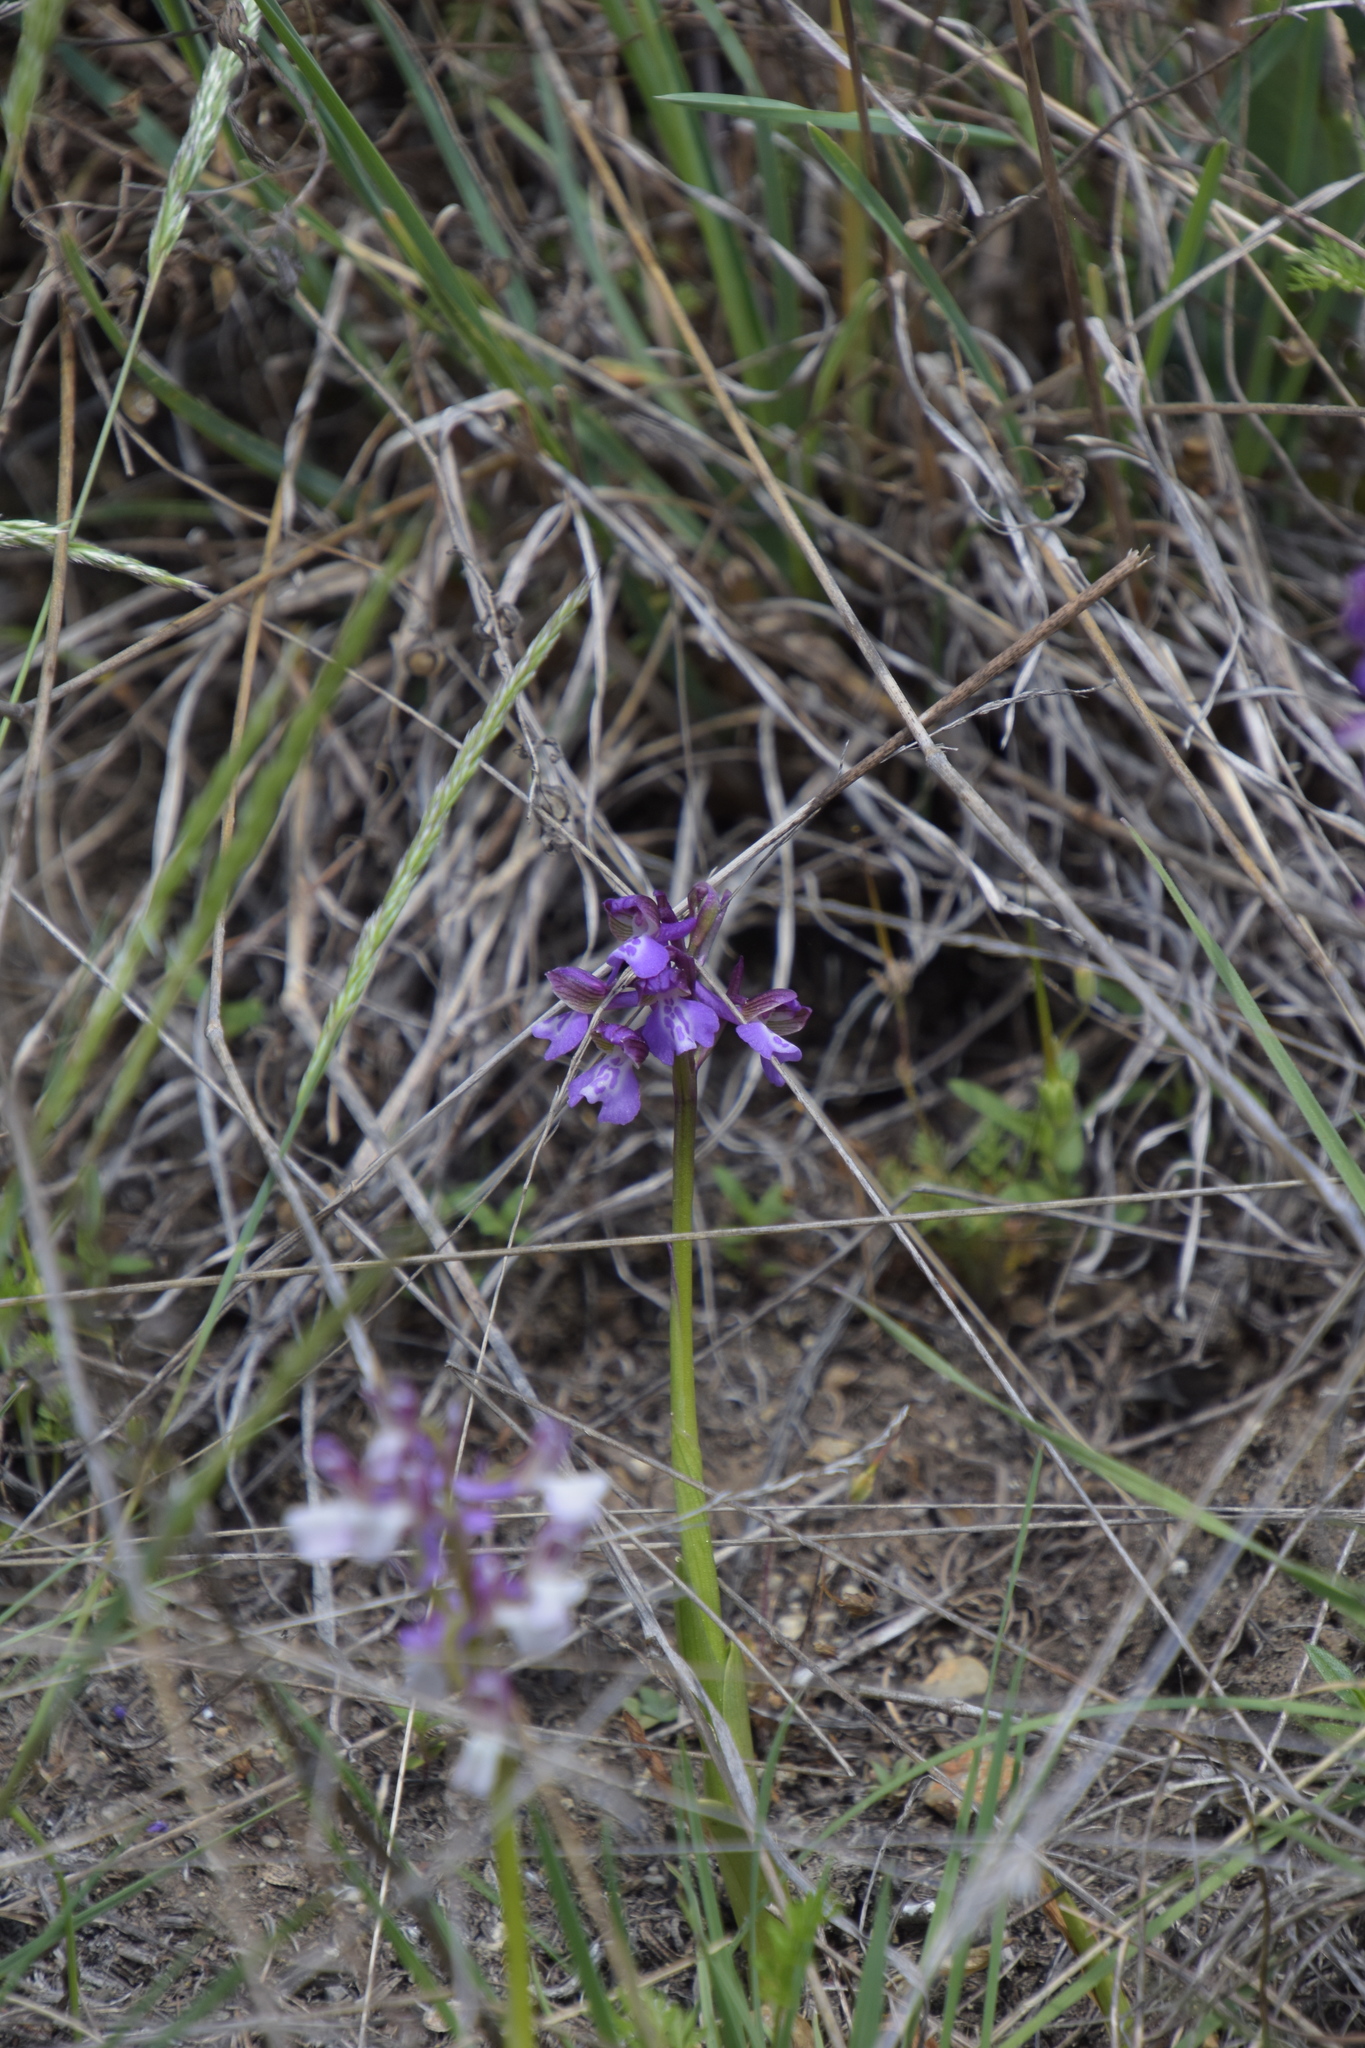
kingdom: Plantae
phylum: Tracheophyta
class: Liliopsida
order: Asparagales
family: Orchidaceae
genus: Anacamptis
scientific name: Anacamptis morio
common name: Green-winged orchid
